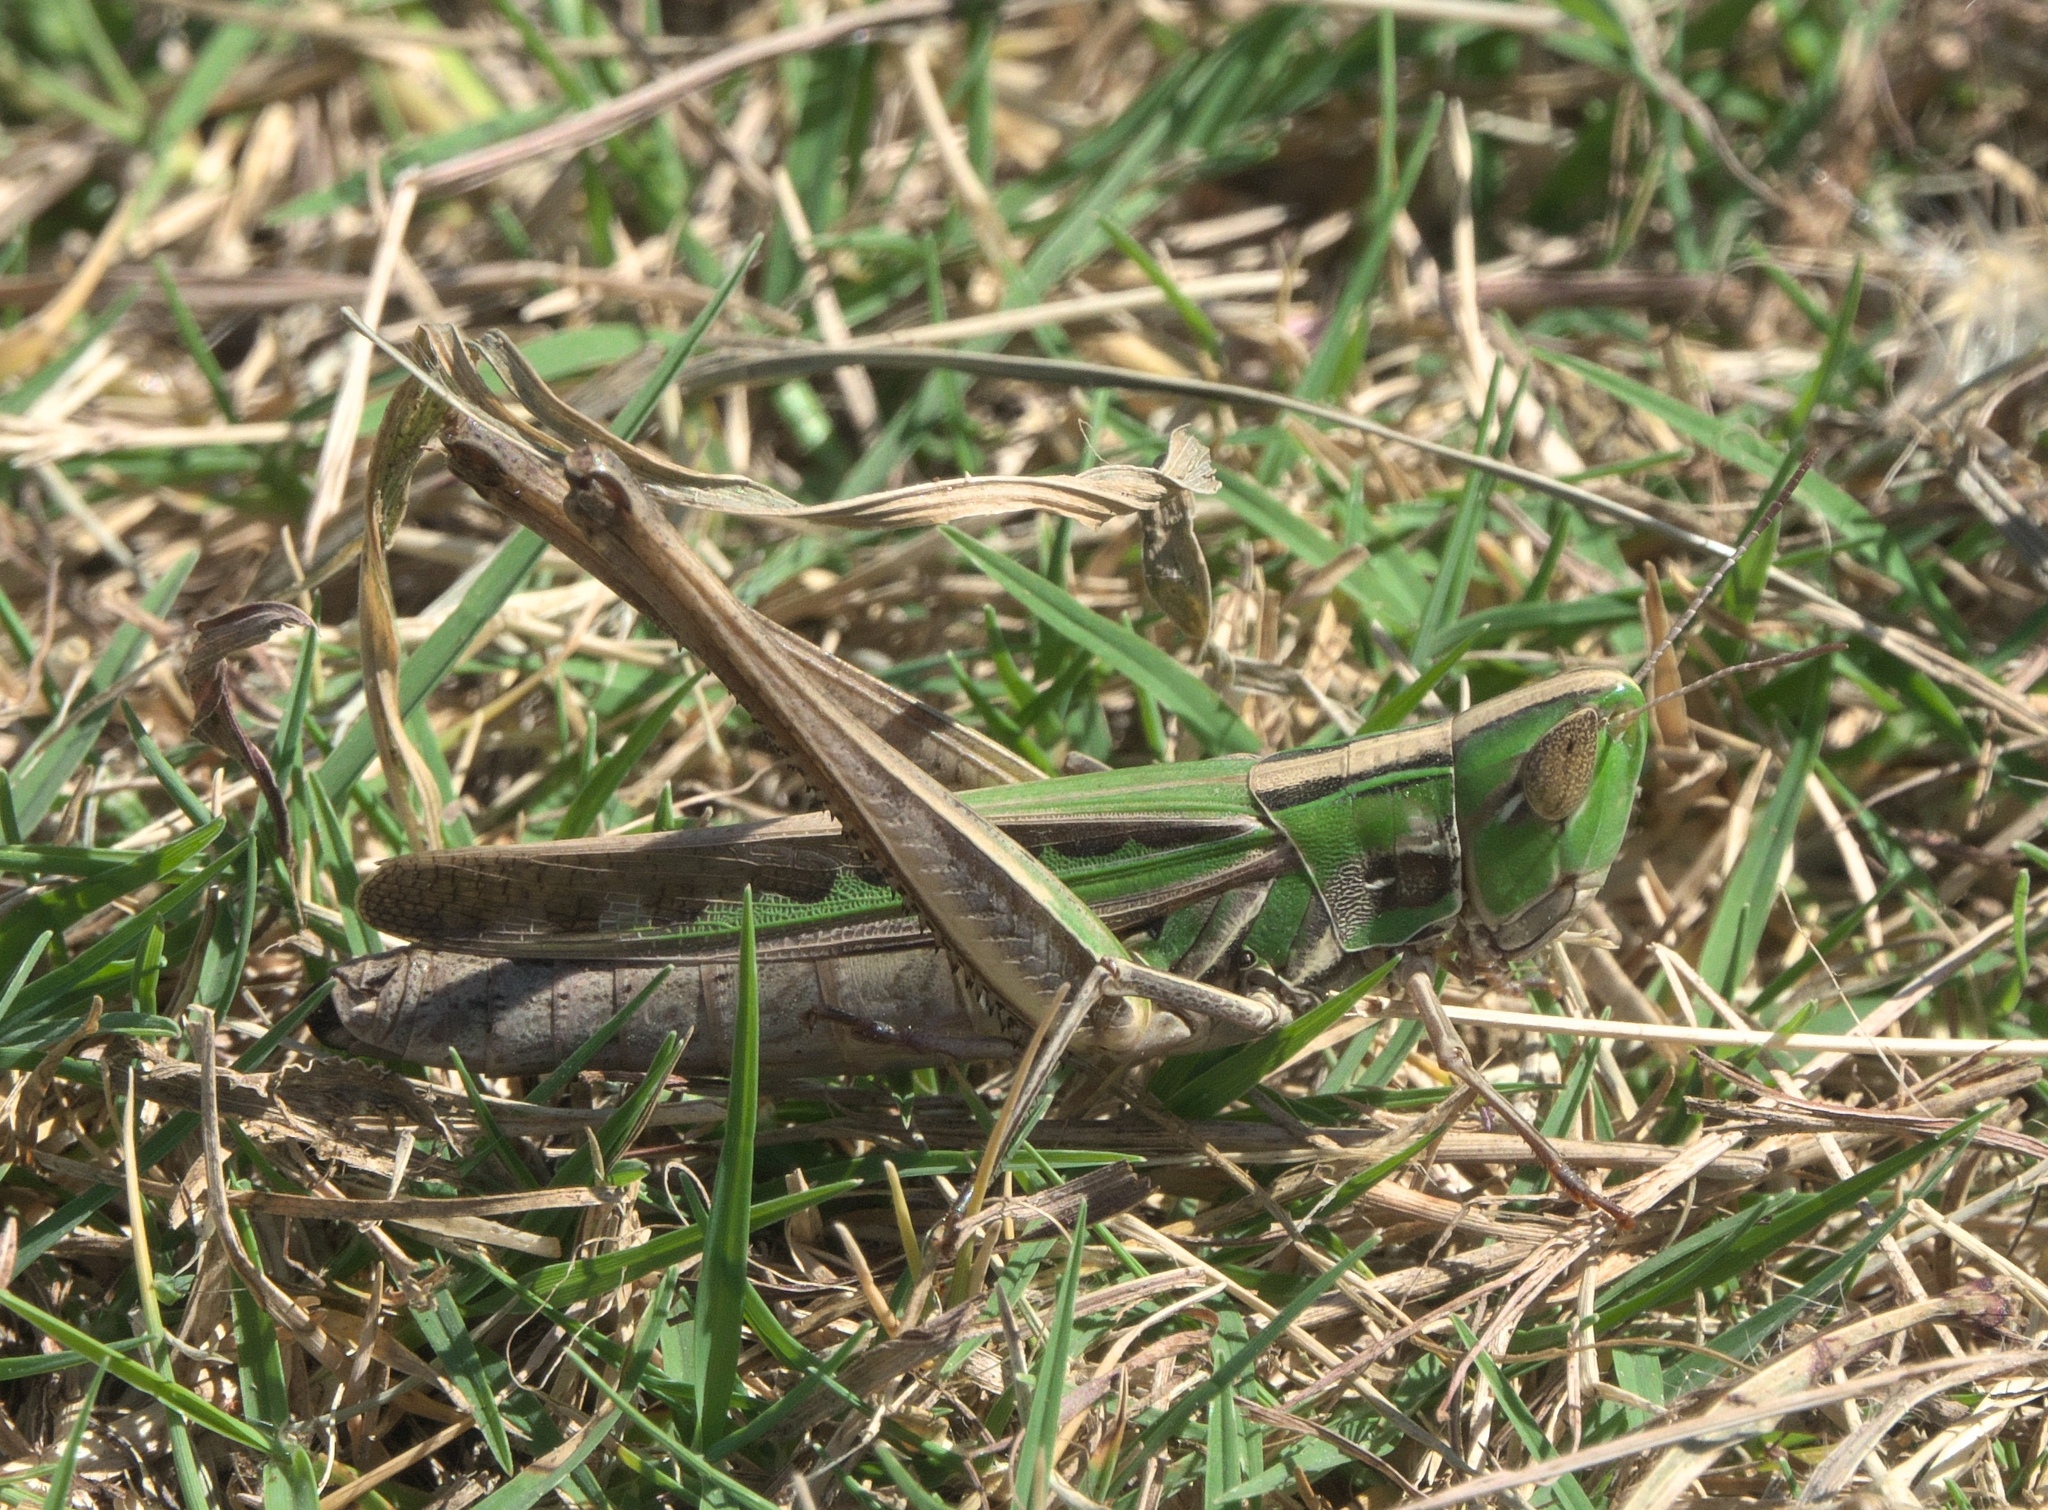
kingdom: Animalia
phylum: Arthropoda
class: Insecta
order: Orthoptera
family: Acrididae
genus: Syrbula
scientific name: Syrbula admirabilis
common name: Handsome grasshopper
